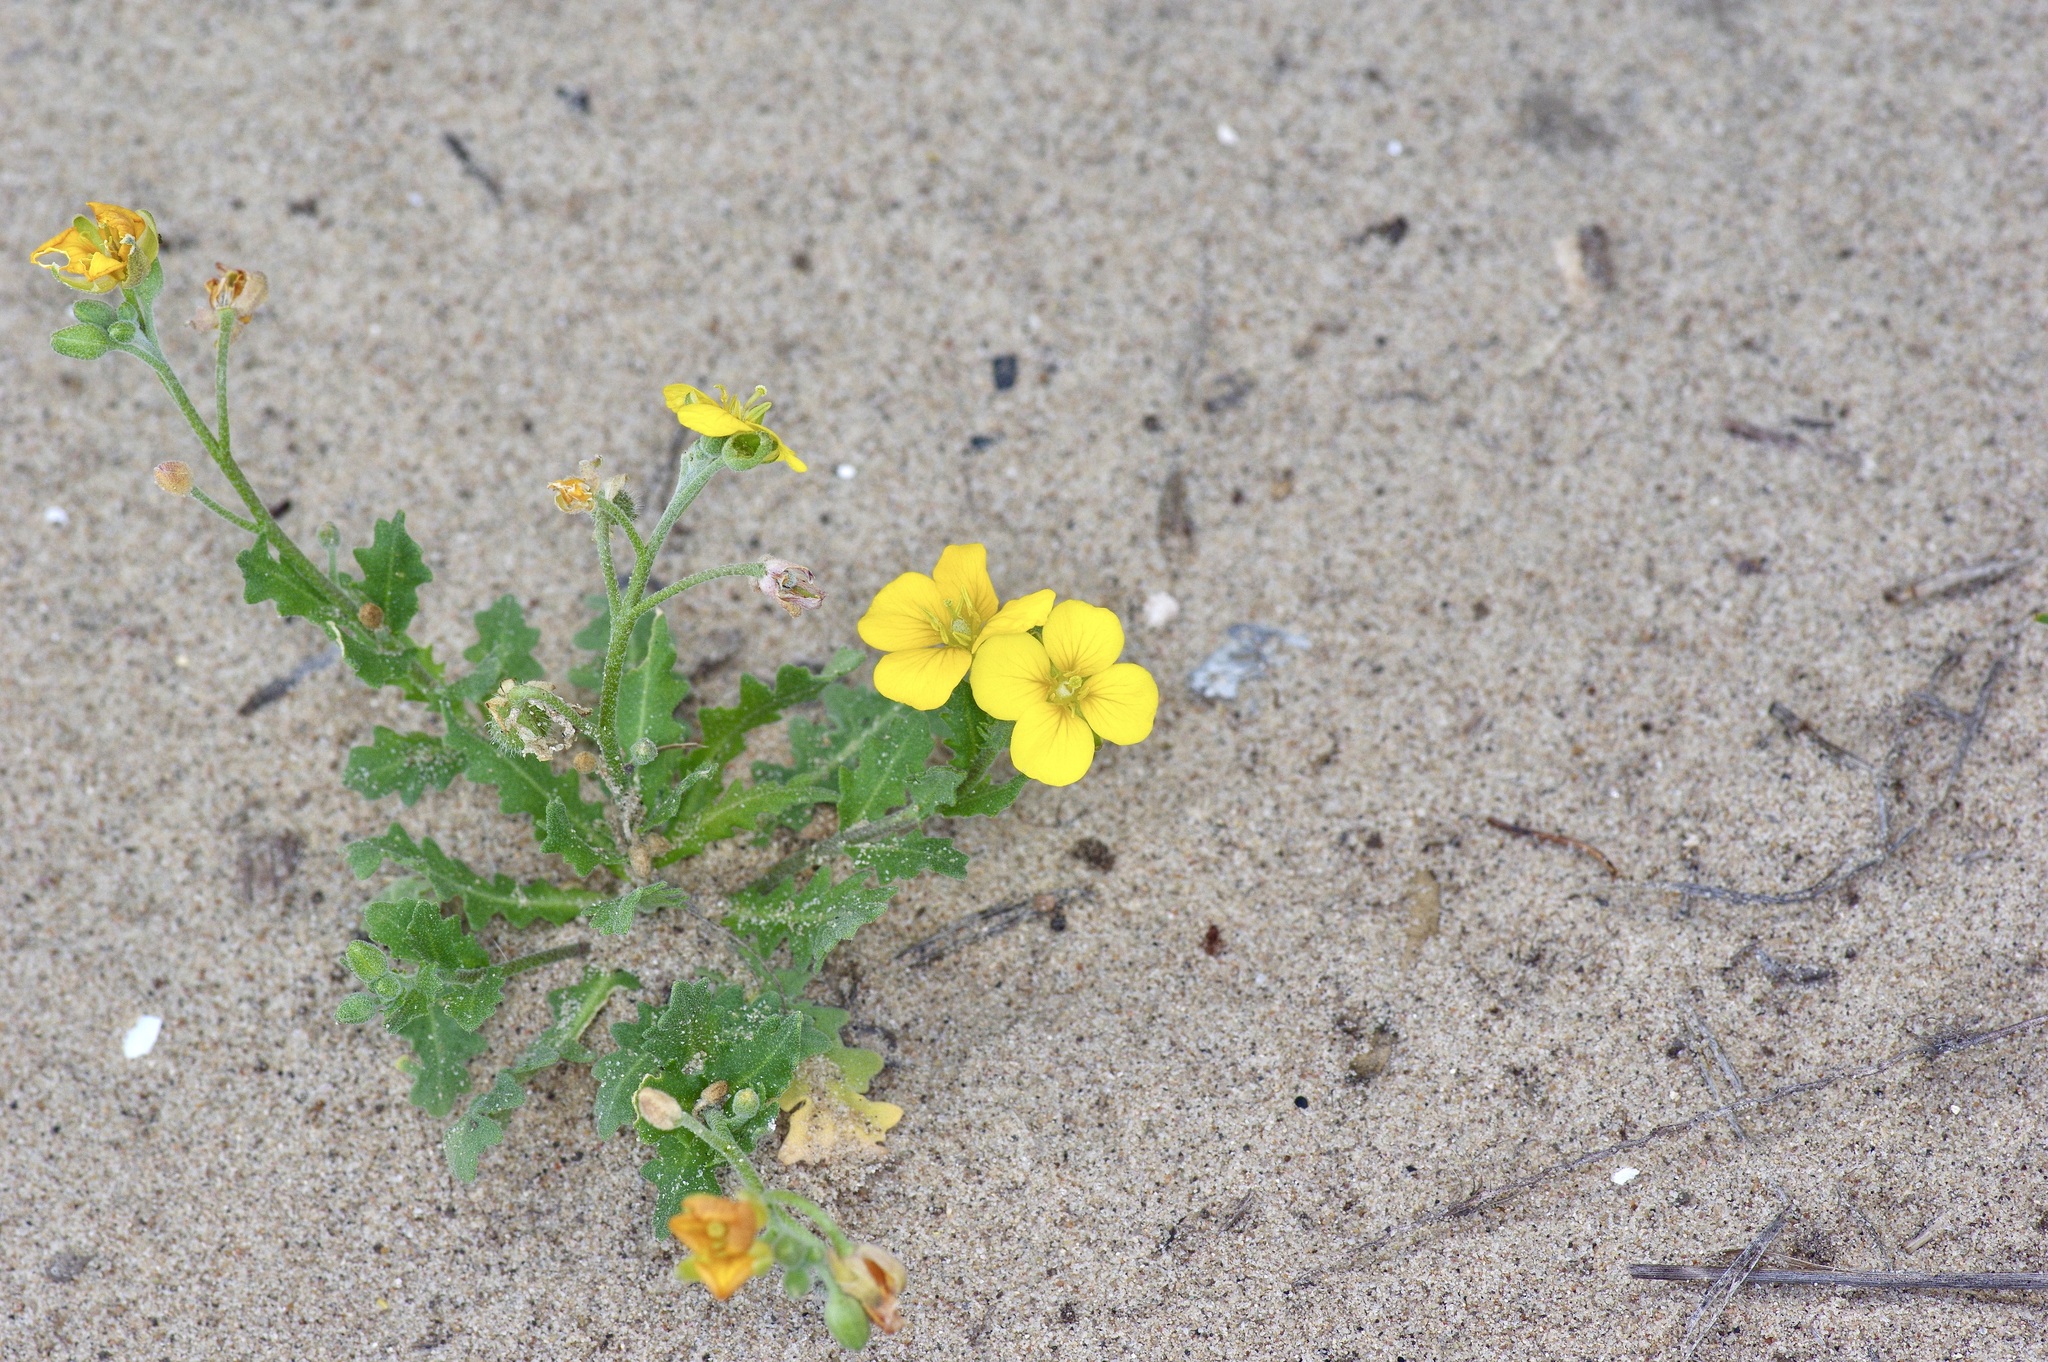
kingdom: Plantae
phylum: Tracheophyta
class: Magnoliopsida
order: Brassicales
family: Brassicaceae
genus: Paysonia
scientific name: Paysonia grandiflora
